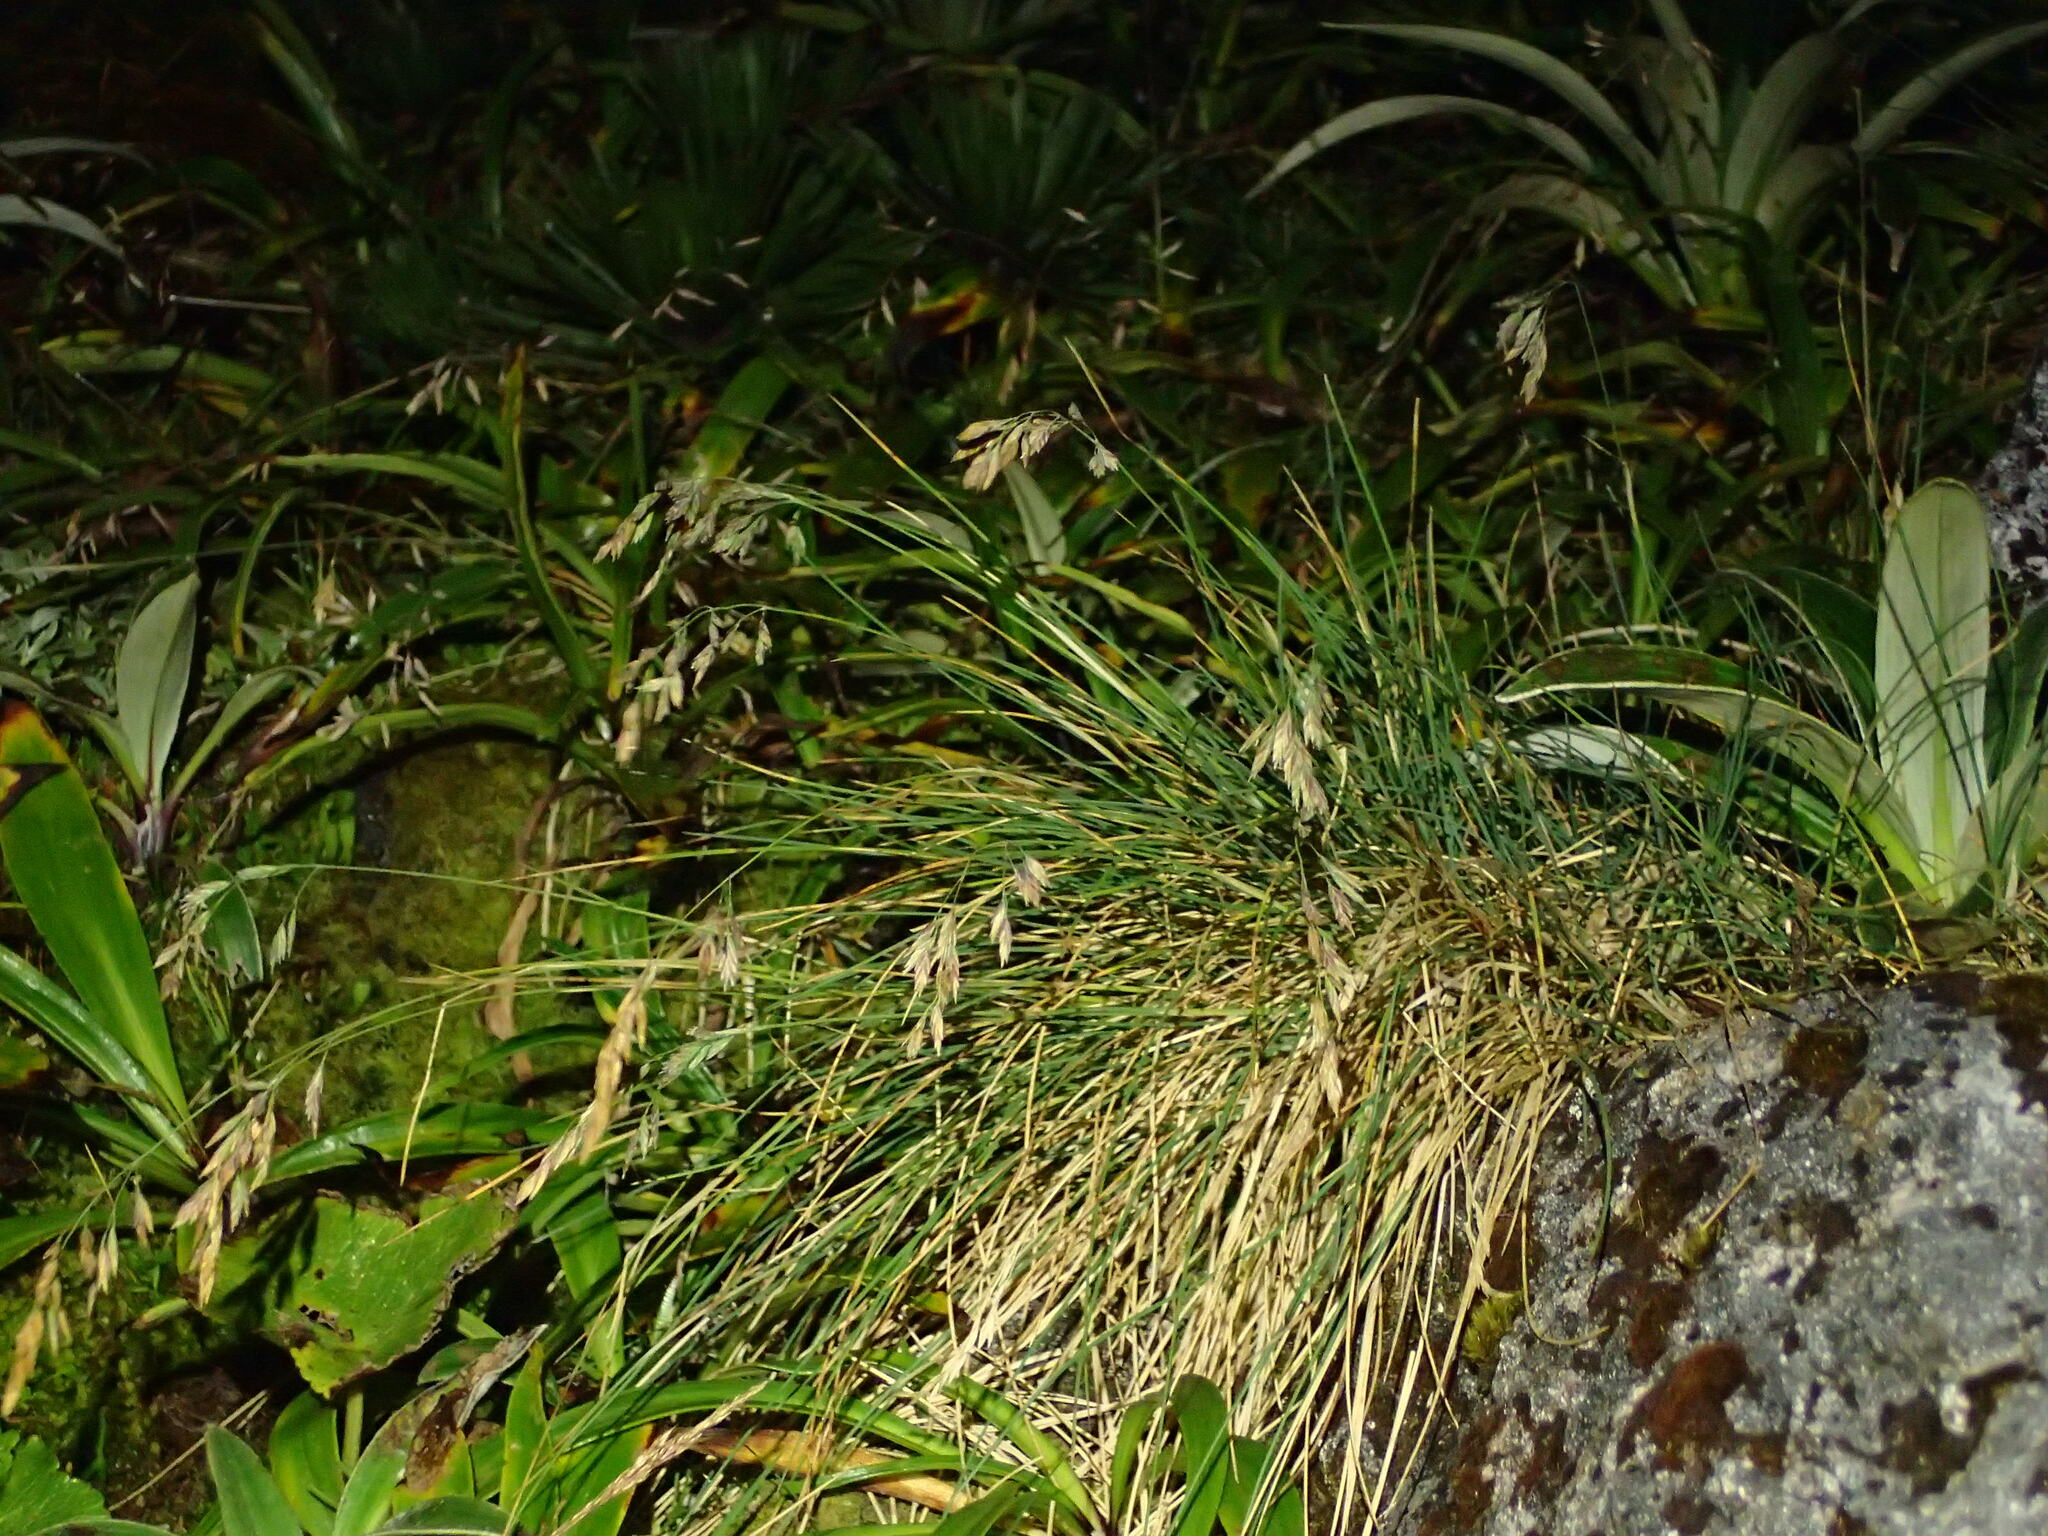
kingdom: Plantae
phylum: Tracheophyta
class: Liliopsida
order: Poales
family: Poaceae
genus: Poa
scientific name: Poa colensoi
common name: Blue tussock
